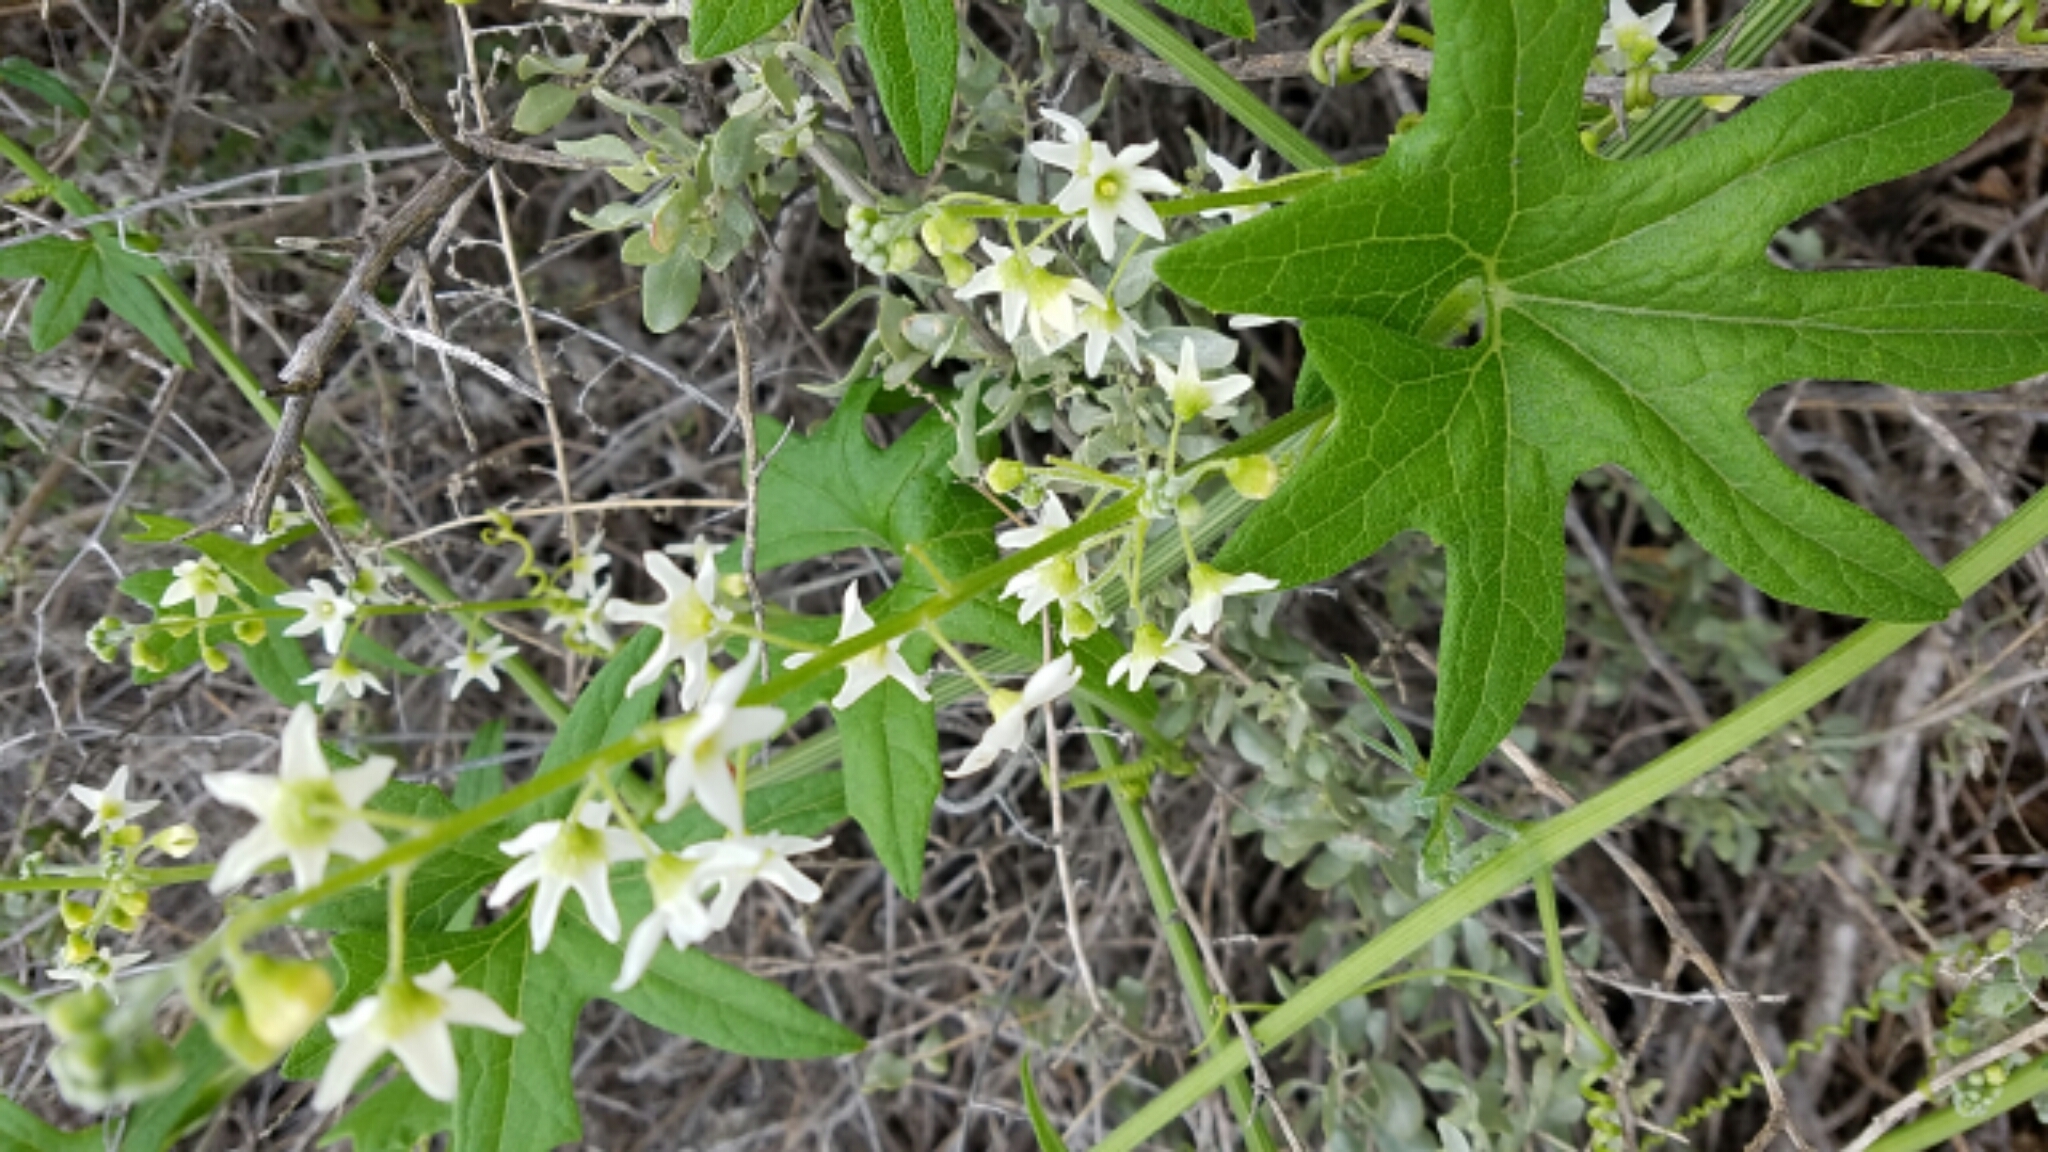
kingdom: Plantae
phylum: Tracheophyta
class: Magnoliopsida
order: Cucurbitales
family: Cucurbitaceae
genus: Marah
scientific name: Marah macrocarpa
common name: Cucamonga manroot
